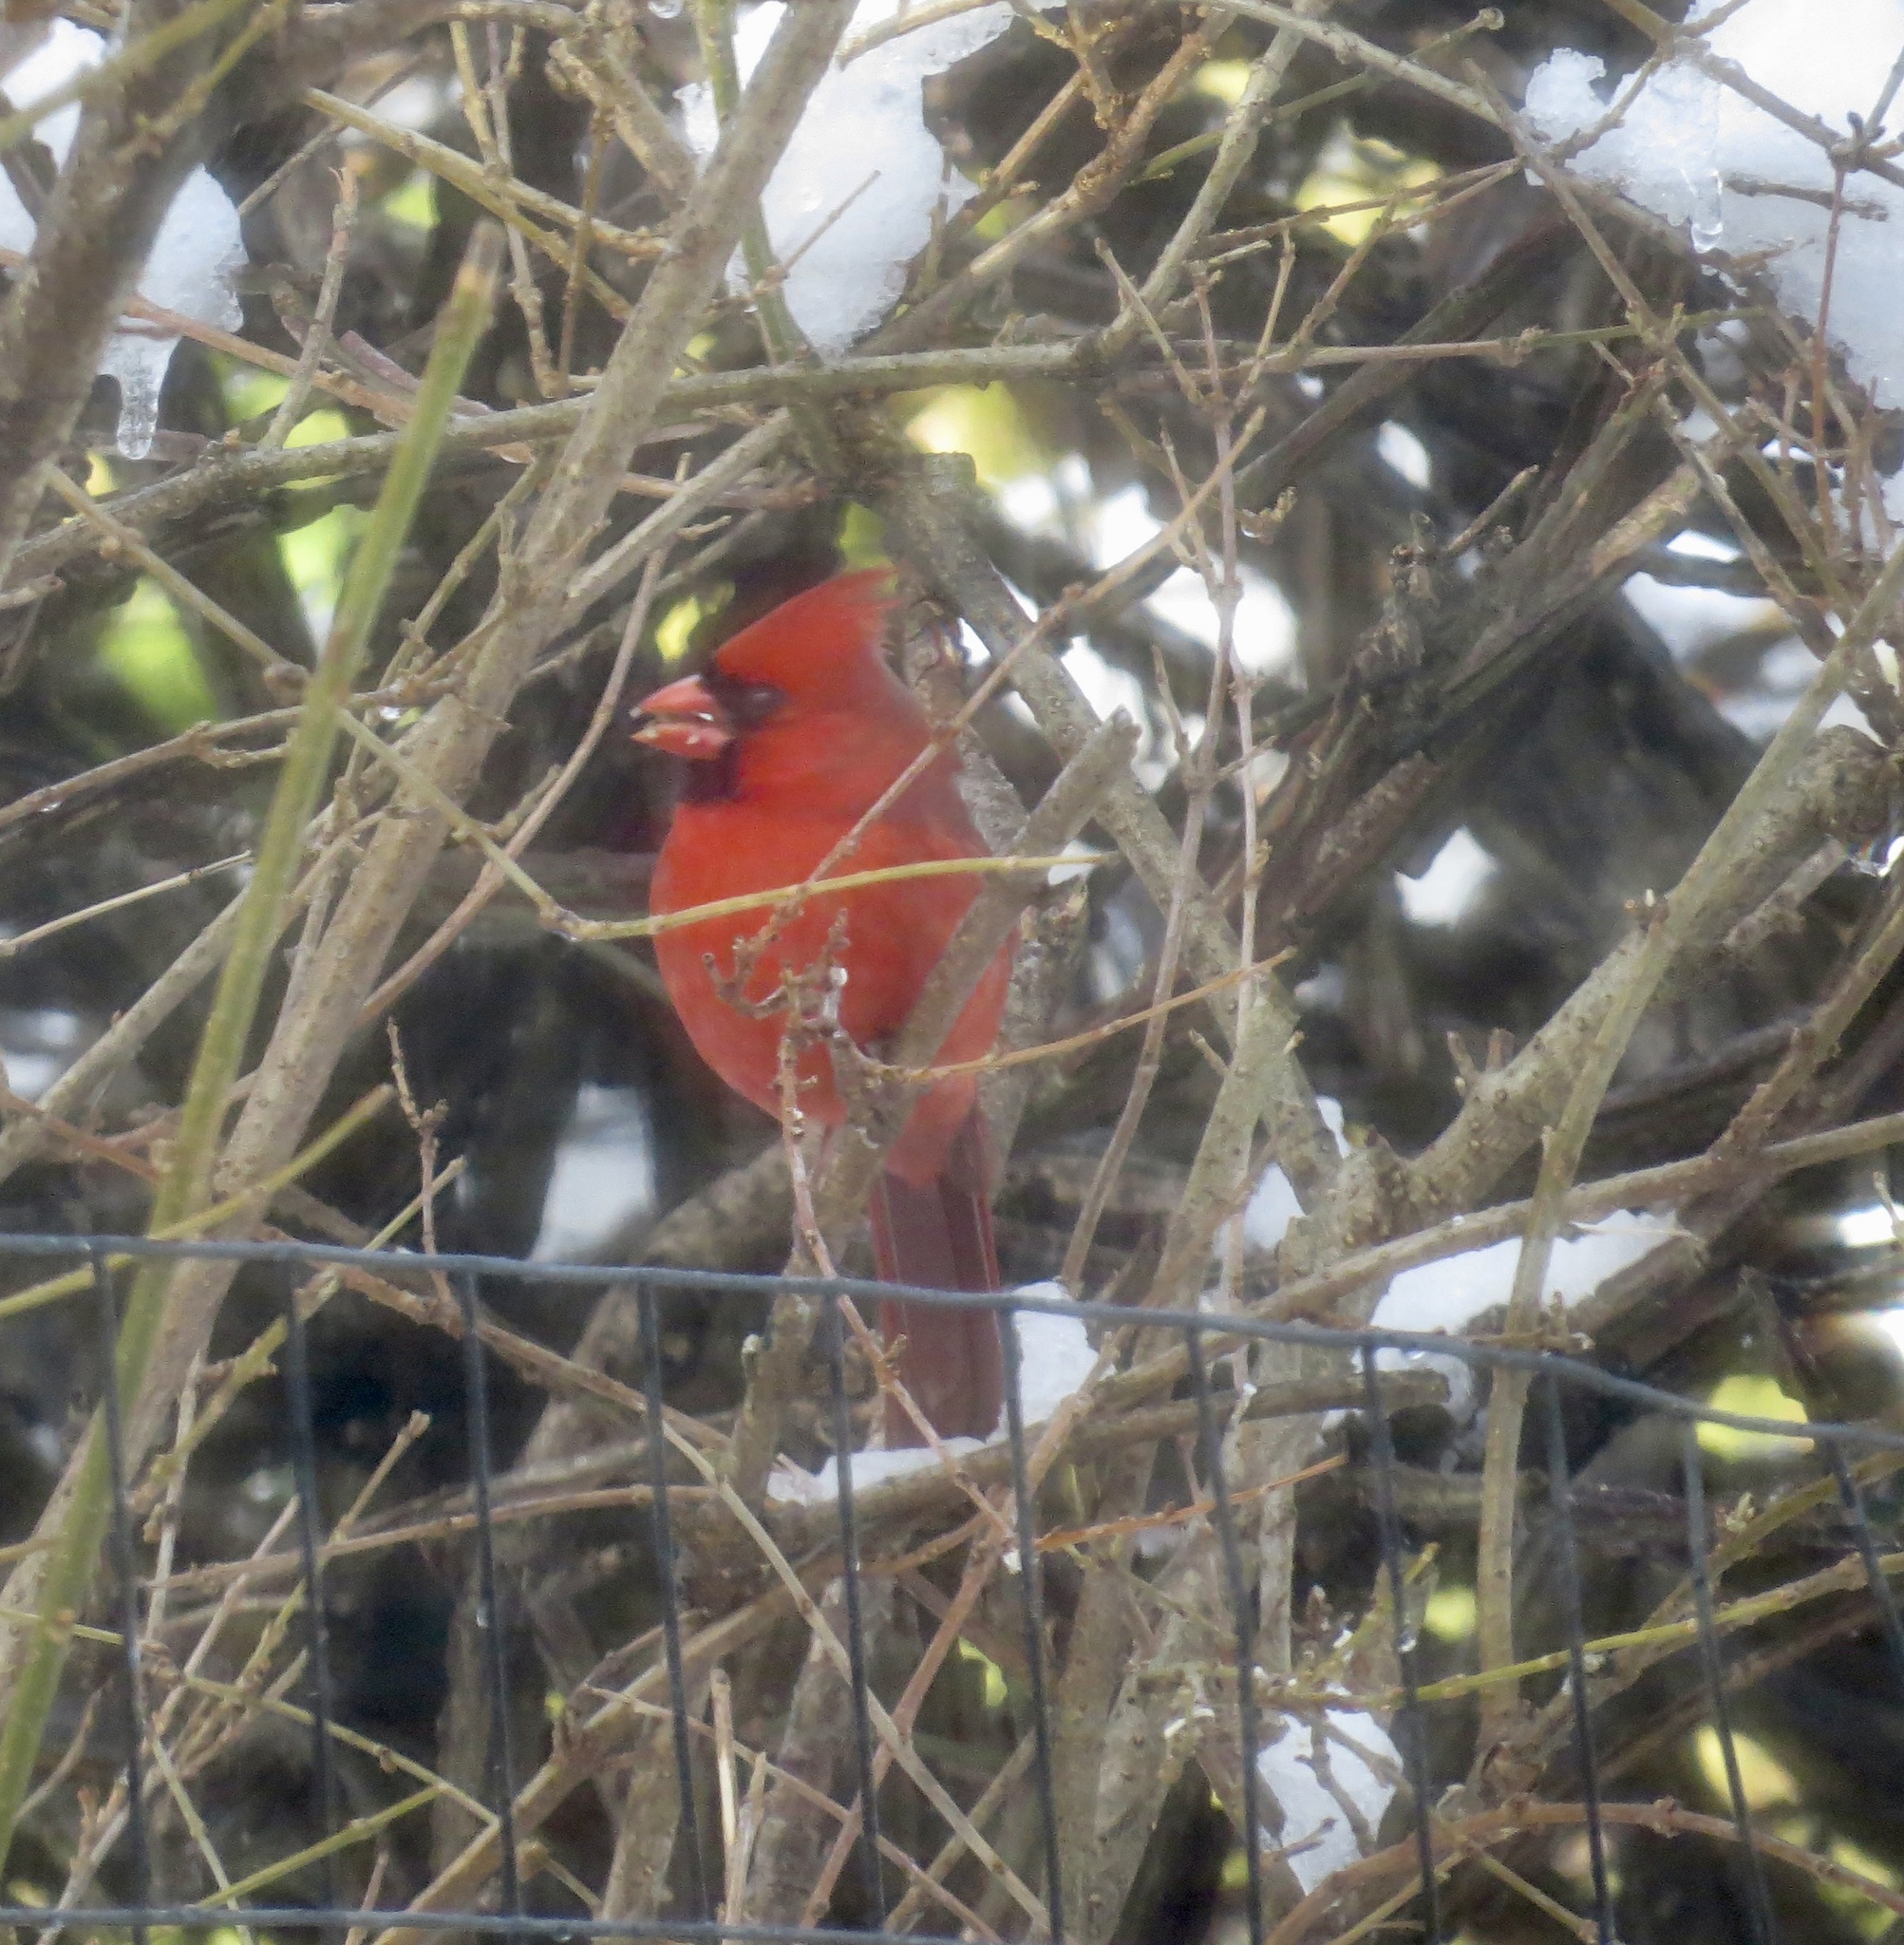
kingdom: Animalia
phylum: Chordata
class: Aves
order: Passeriformes
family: Cardinalidae
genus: Cardinalis
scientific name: Cardinalis cardinalis
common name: Northern cardinal
